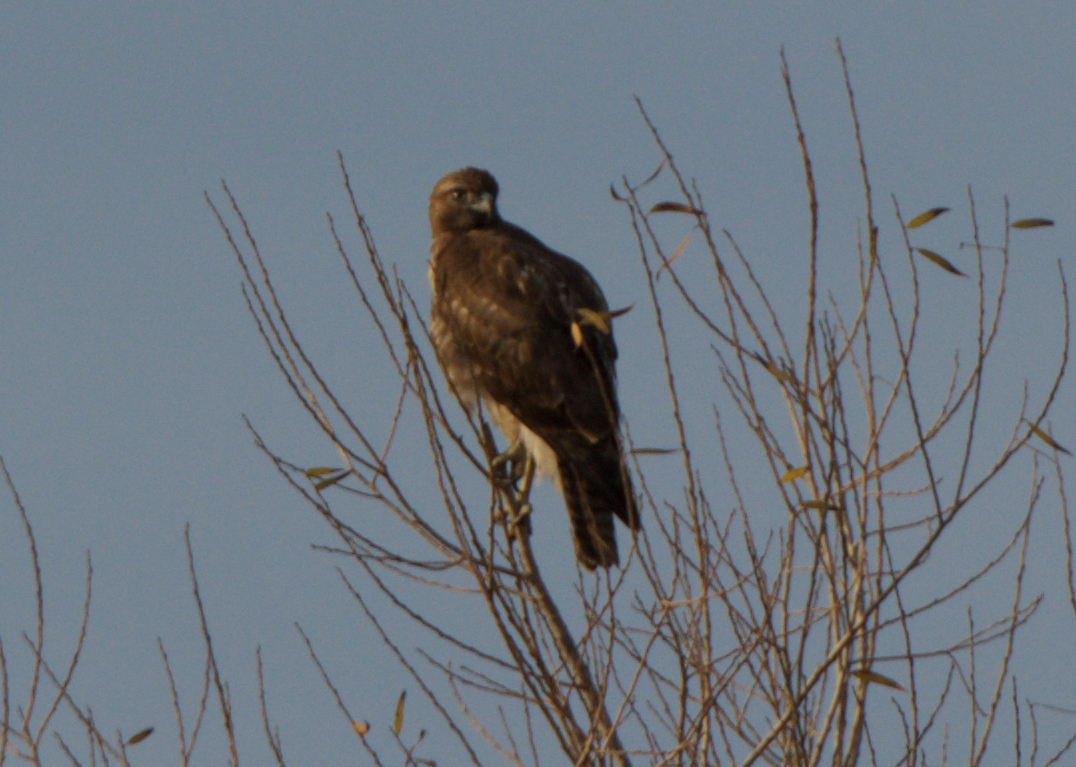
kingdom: Animalia
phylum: Chordata
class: Aves
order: Accipitriformes
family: Accipitridae
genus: Buteo
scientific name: Buteo jamaicensis
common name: Red-tailed hawk
